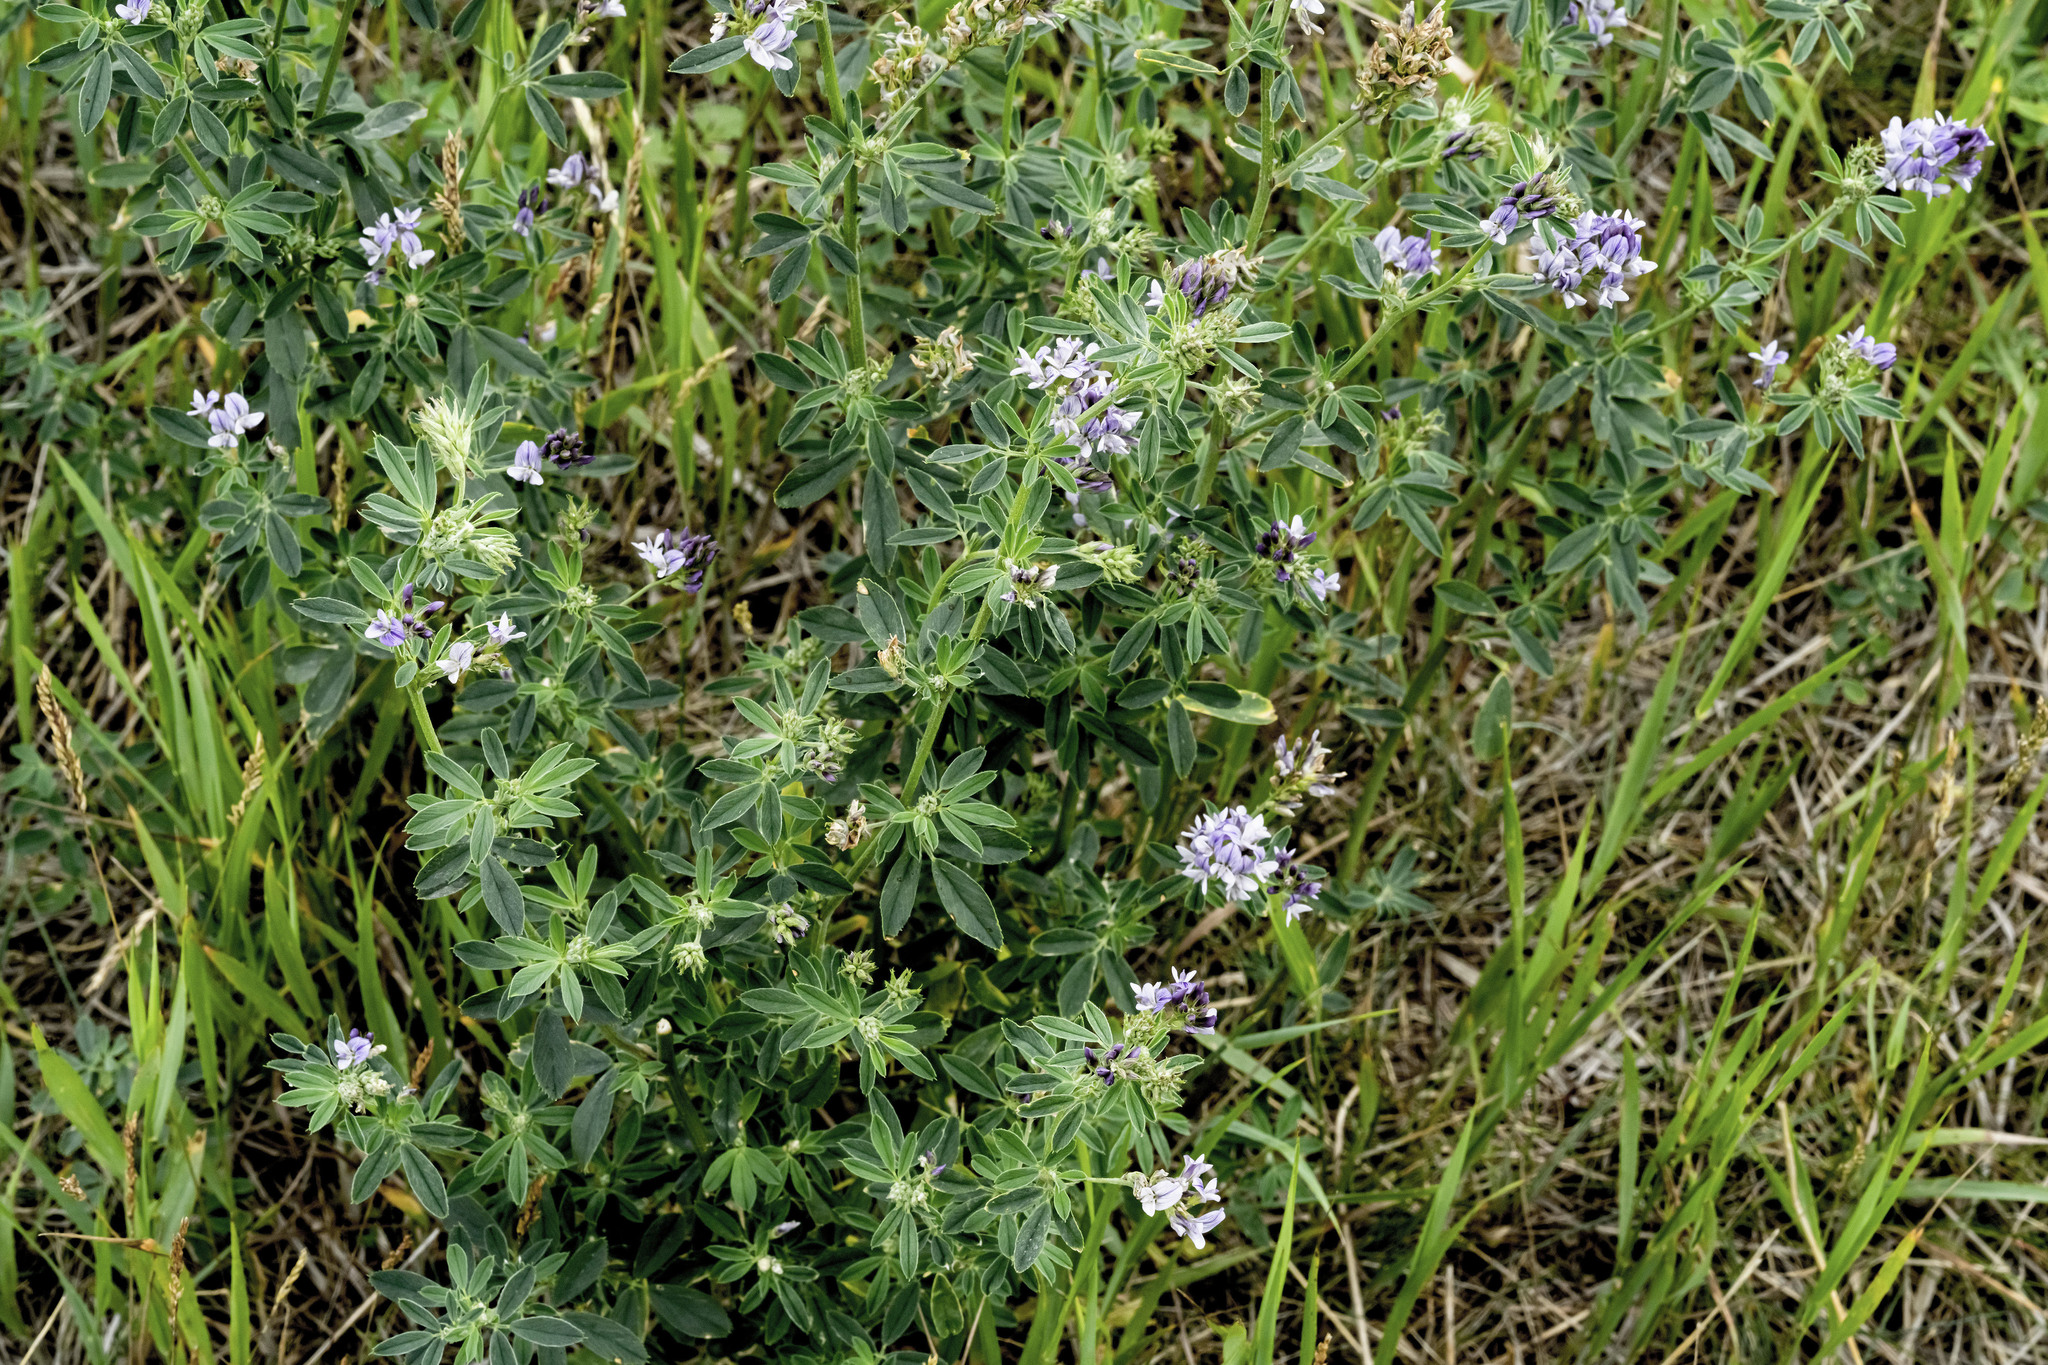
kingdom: Plantae
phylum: Tracheophyta
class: Magnoliopsida
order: Fabales
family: Fabaceae
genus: Medicago
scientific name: Medicago sativa
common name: Alfalfa
